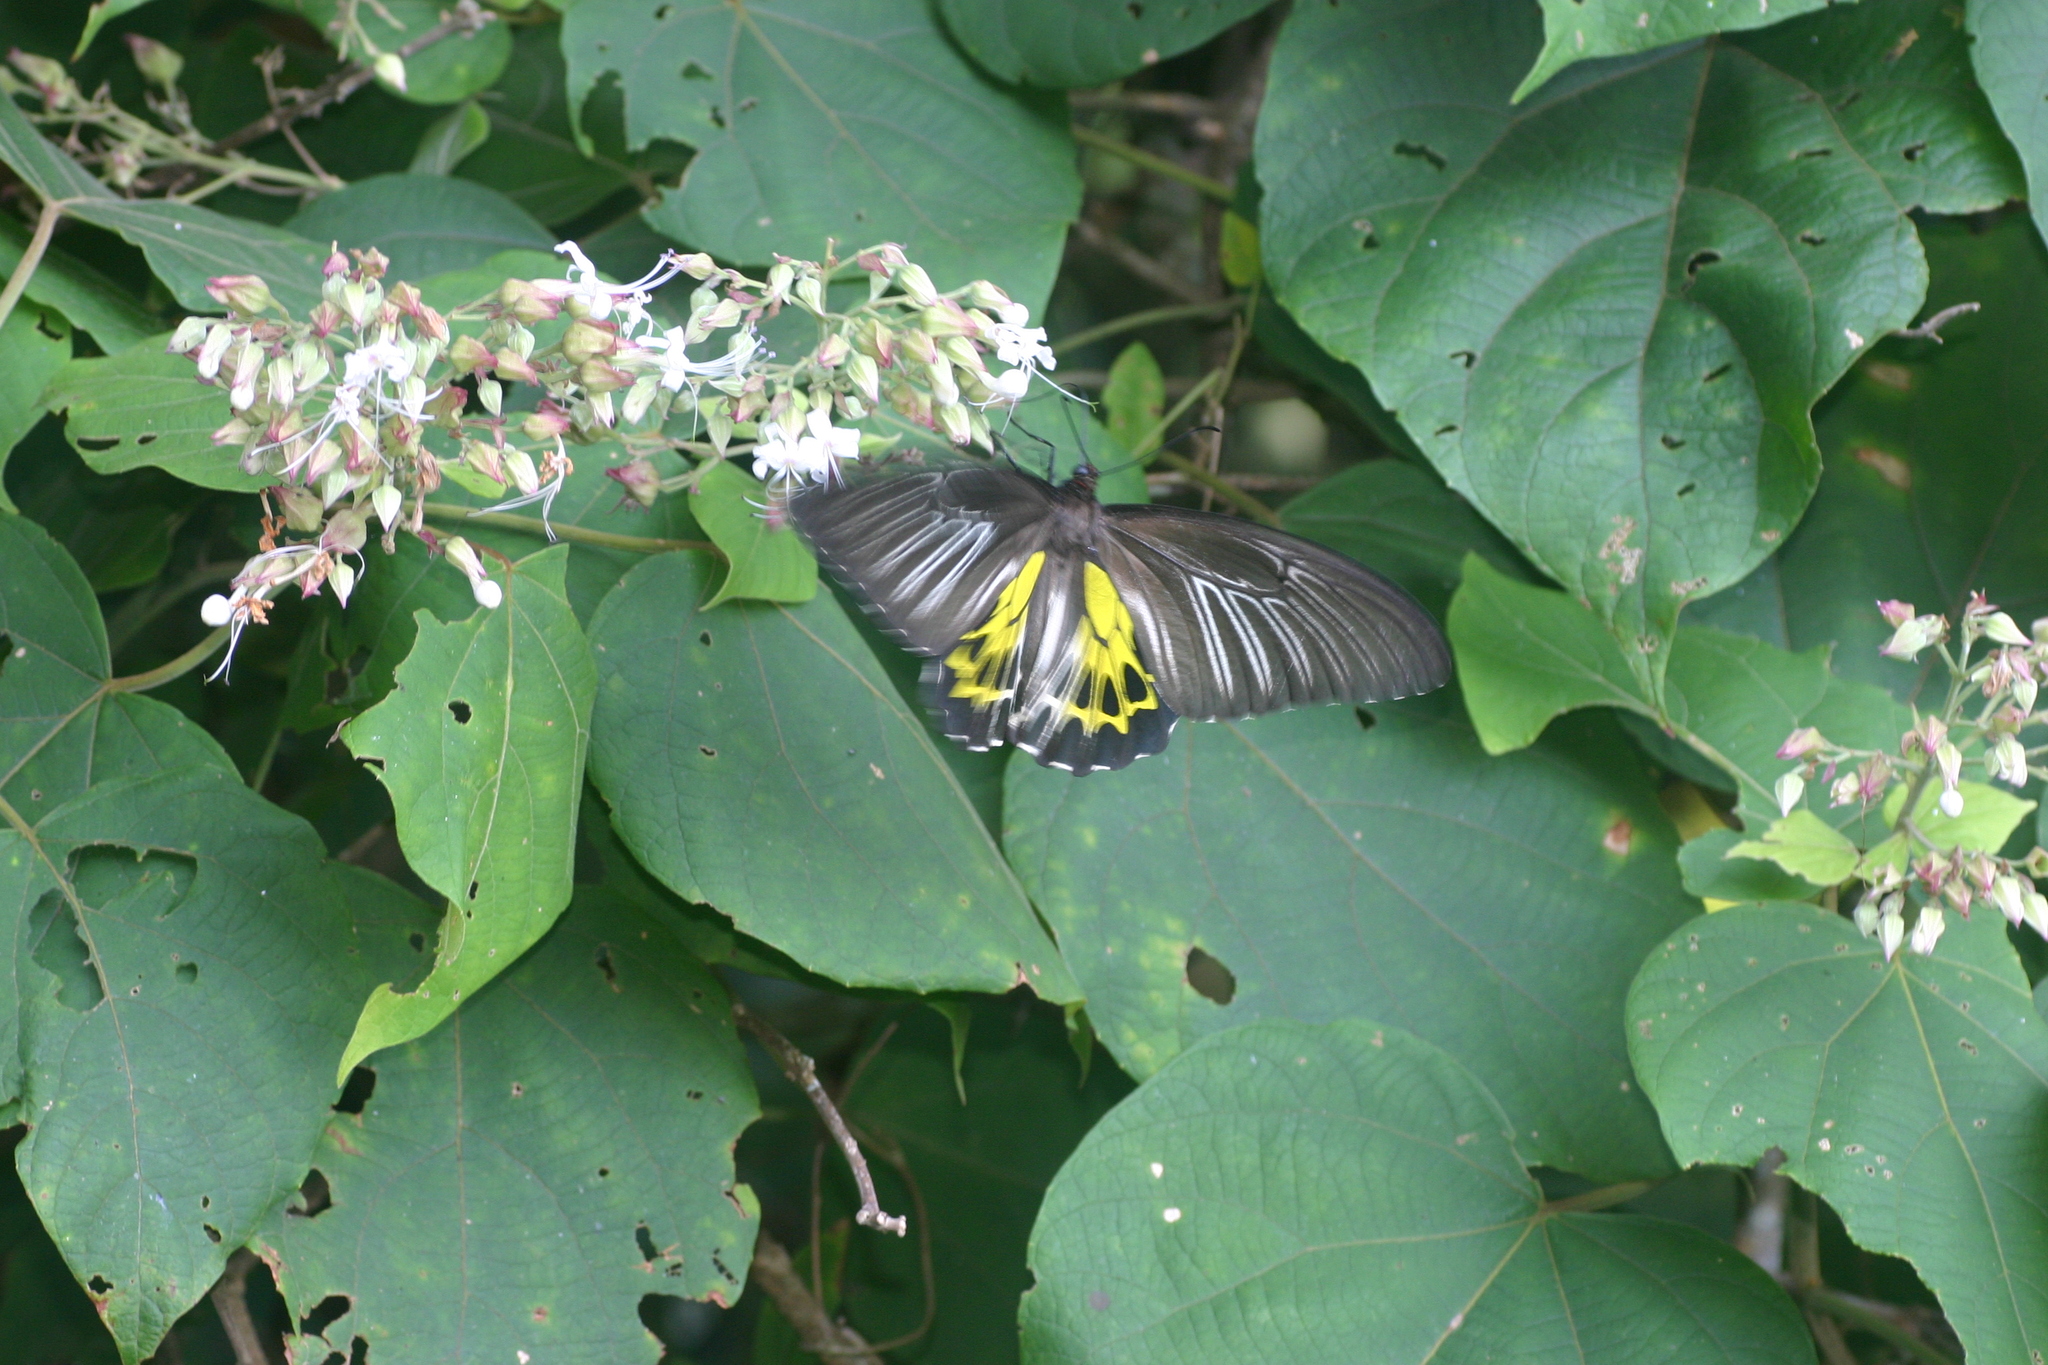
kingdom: Animalia
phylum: Arthropoda
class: Insecta
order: Lepidoptera
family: Papilionidae
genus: Troides
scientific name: Troides minos
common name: Malabar birdwing
